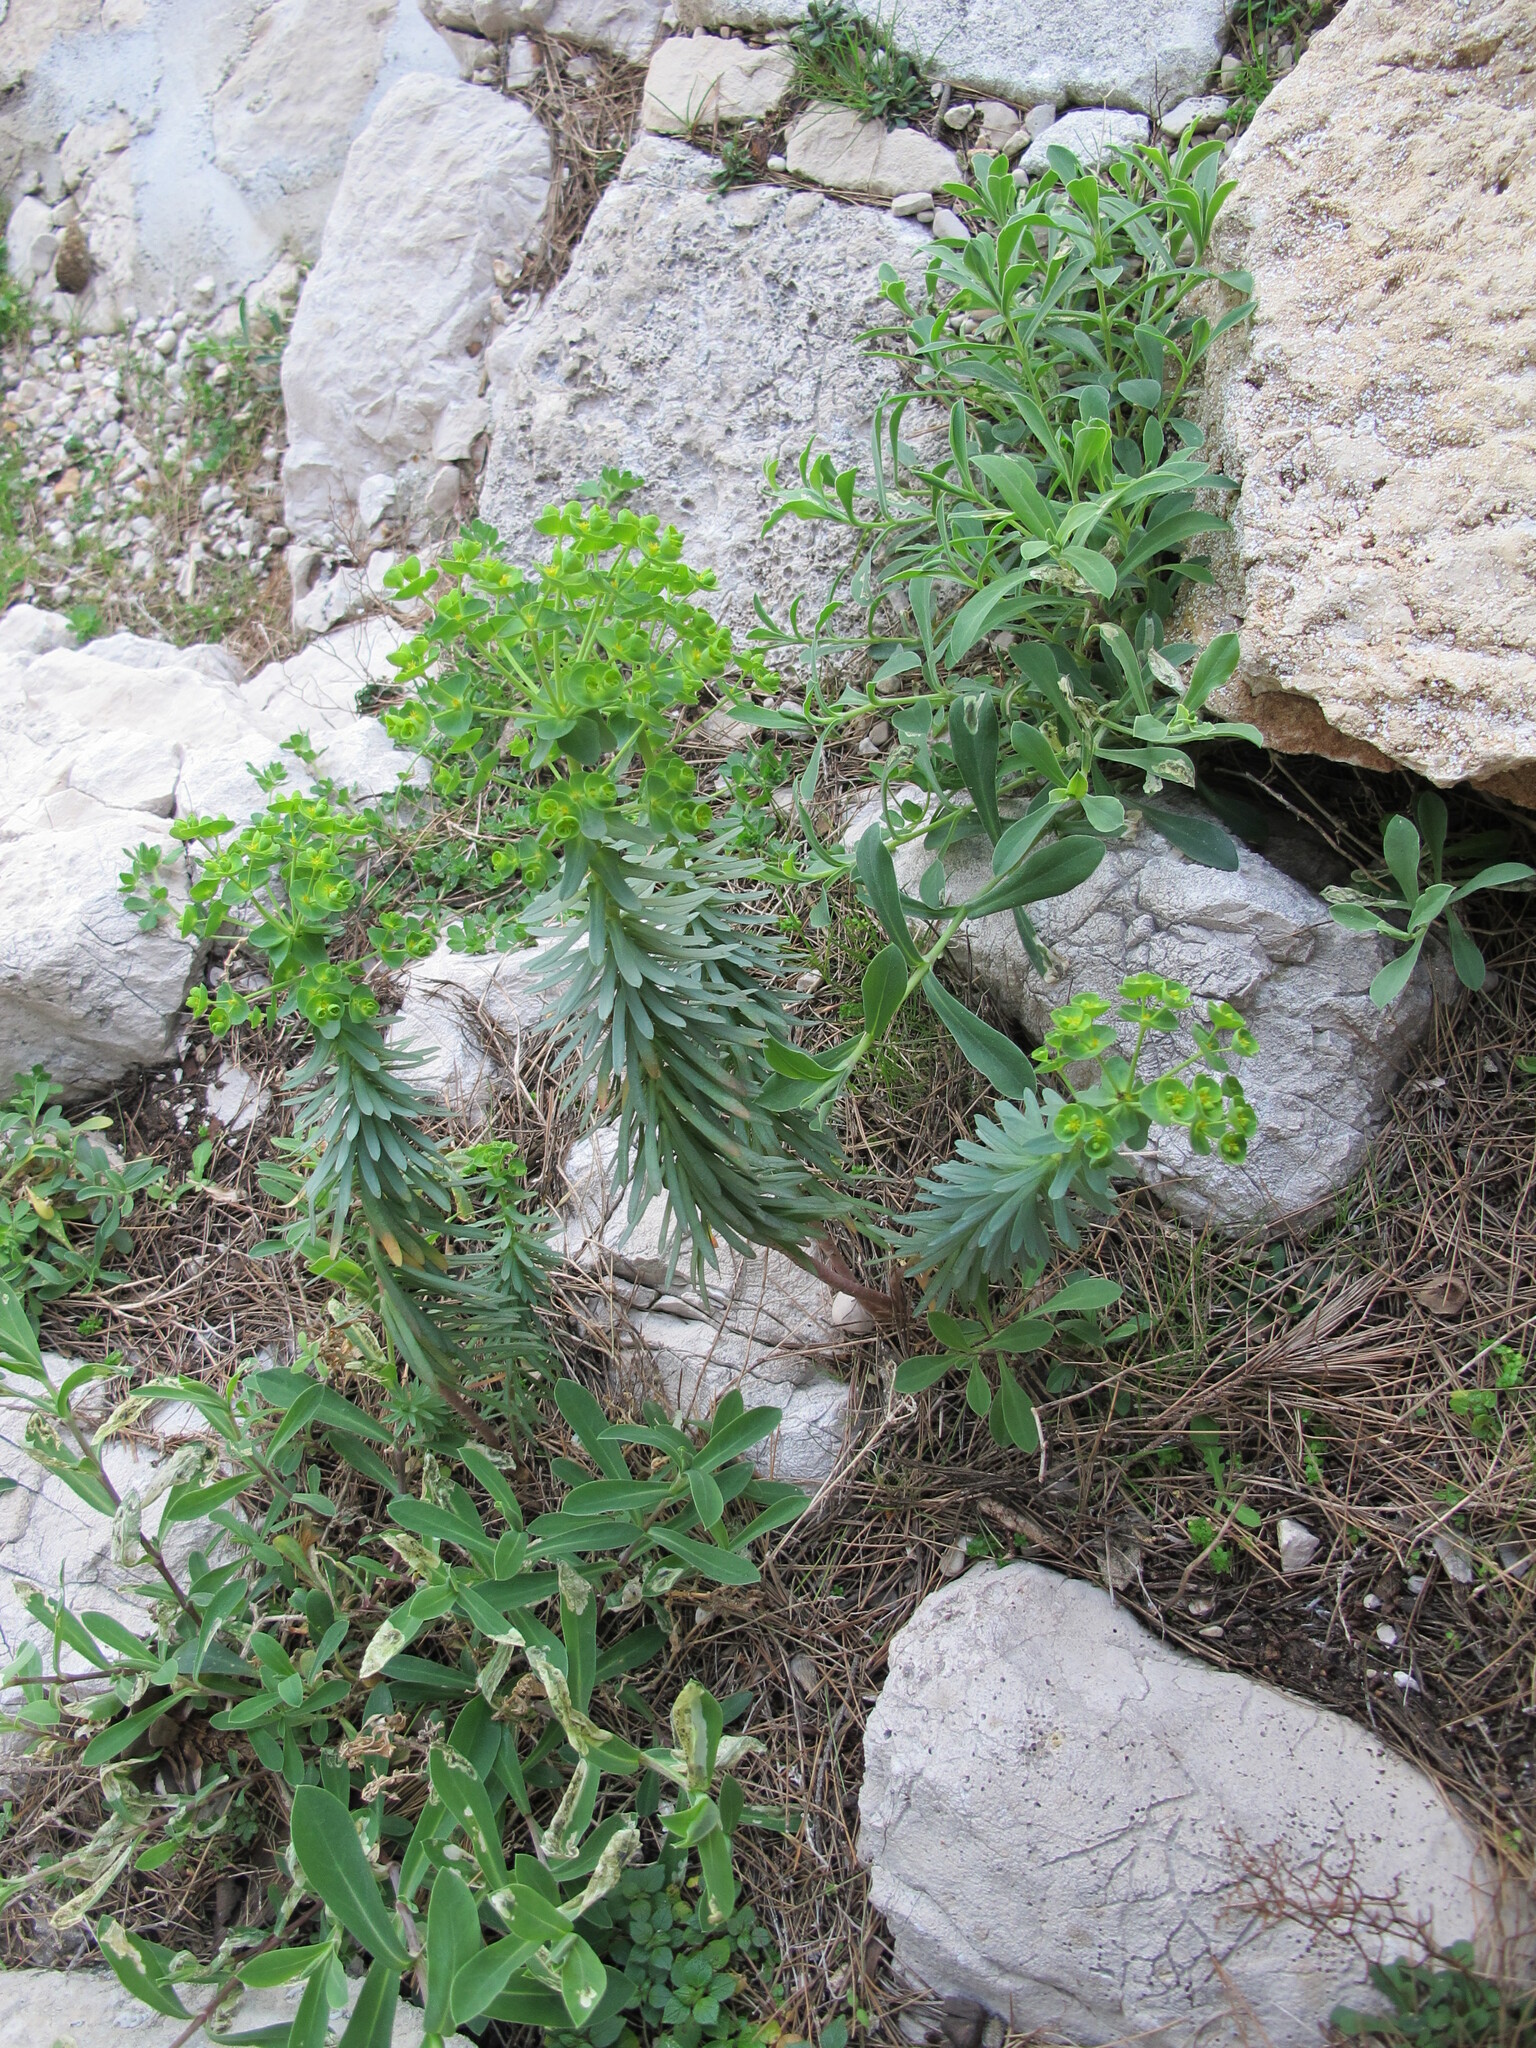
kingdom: Plantae
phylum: Tracheophyta
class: Magnoliopsida
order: Malpighiales
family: Euphorbiaceae
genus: Euphorbia
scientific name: Euphorbia segetalis
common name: Corn spurge
